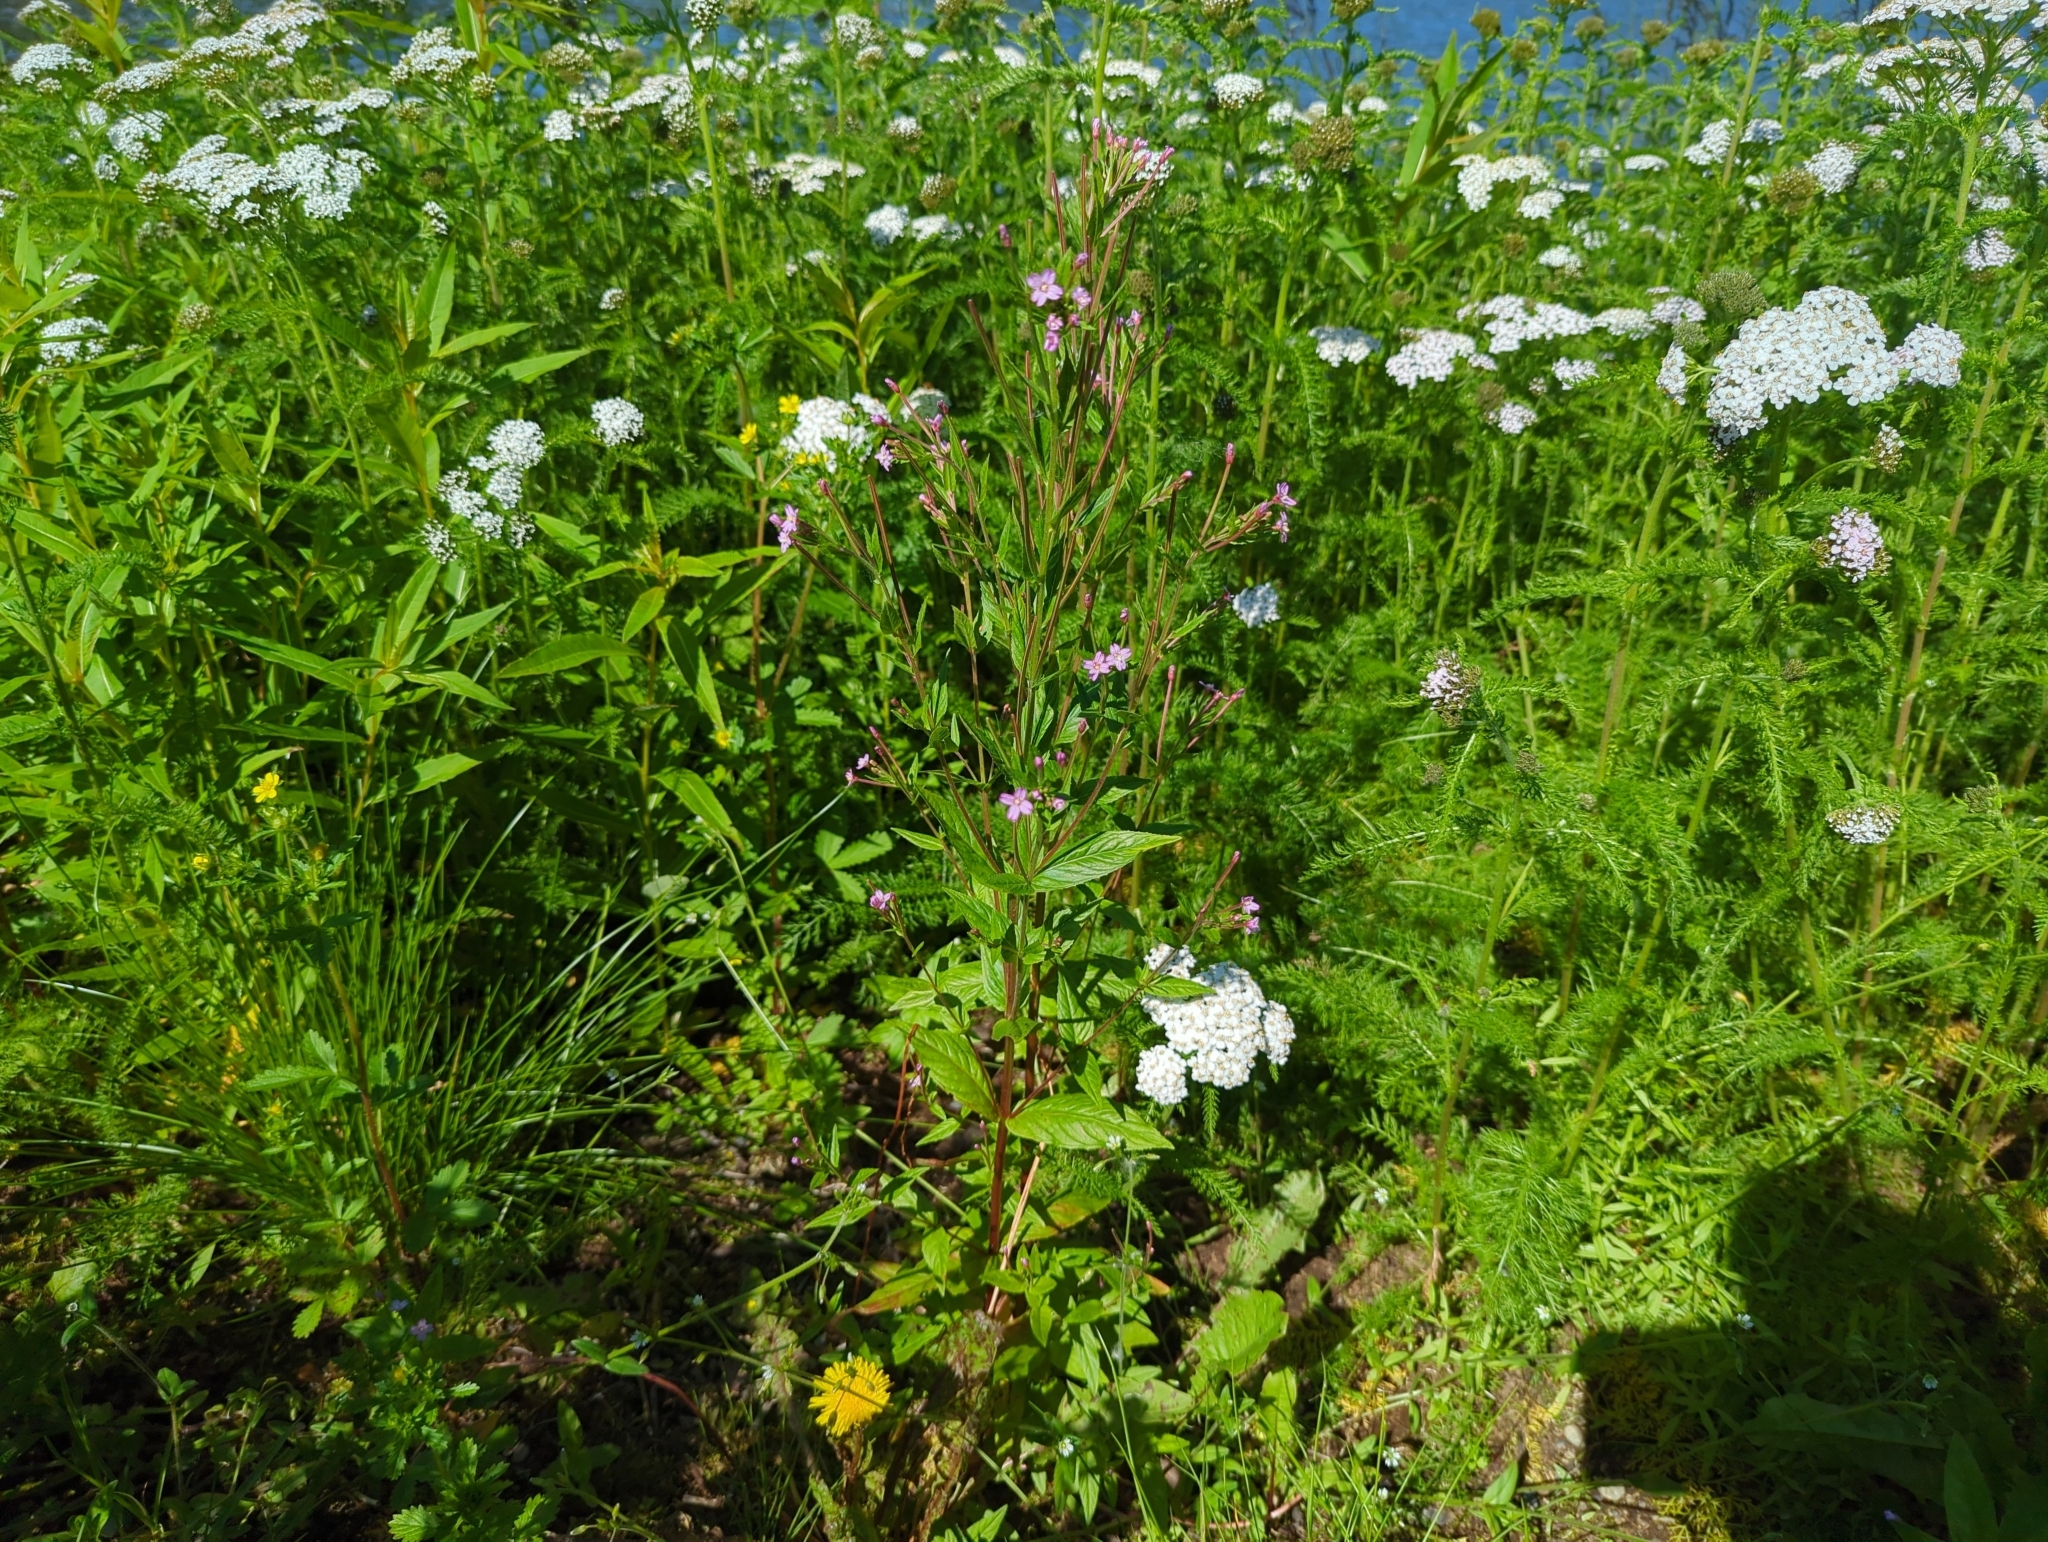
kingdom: Plantae
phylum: Tracheophyta
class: Magnoliopsida
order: Myrtales
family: Onagraceae
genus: Epilobium
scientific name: Epilobium ciliatum
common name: American willowherb
